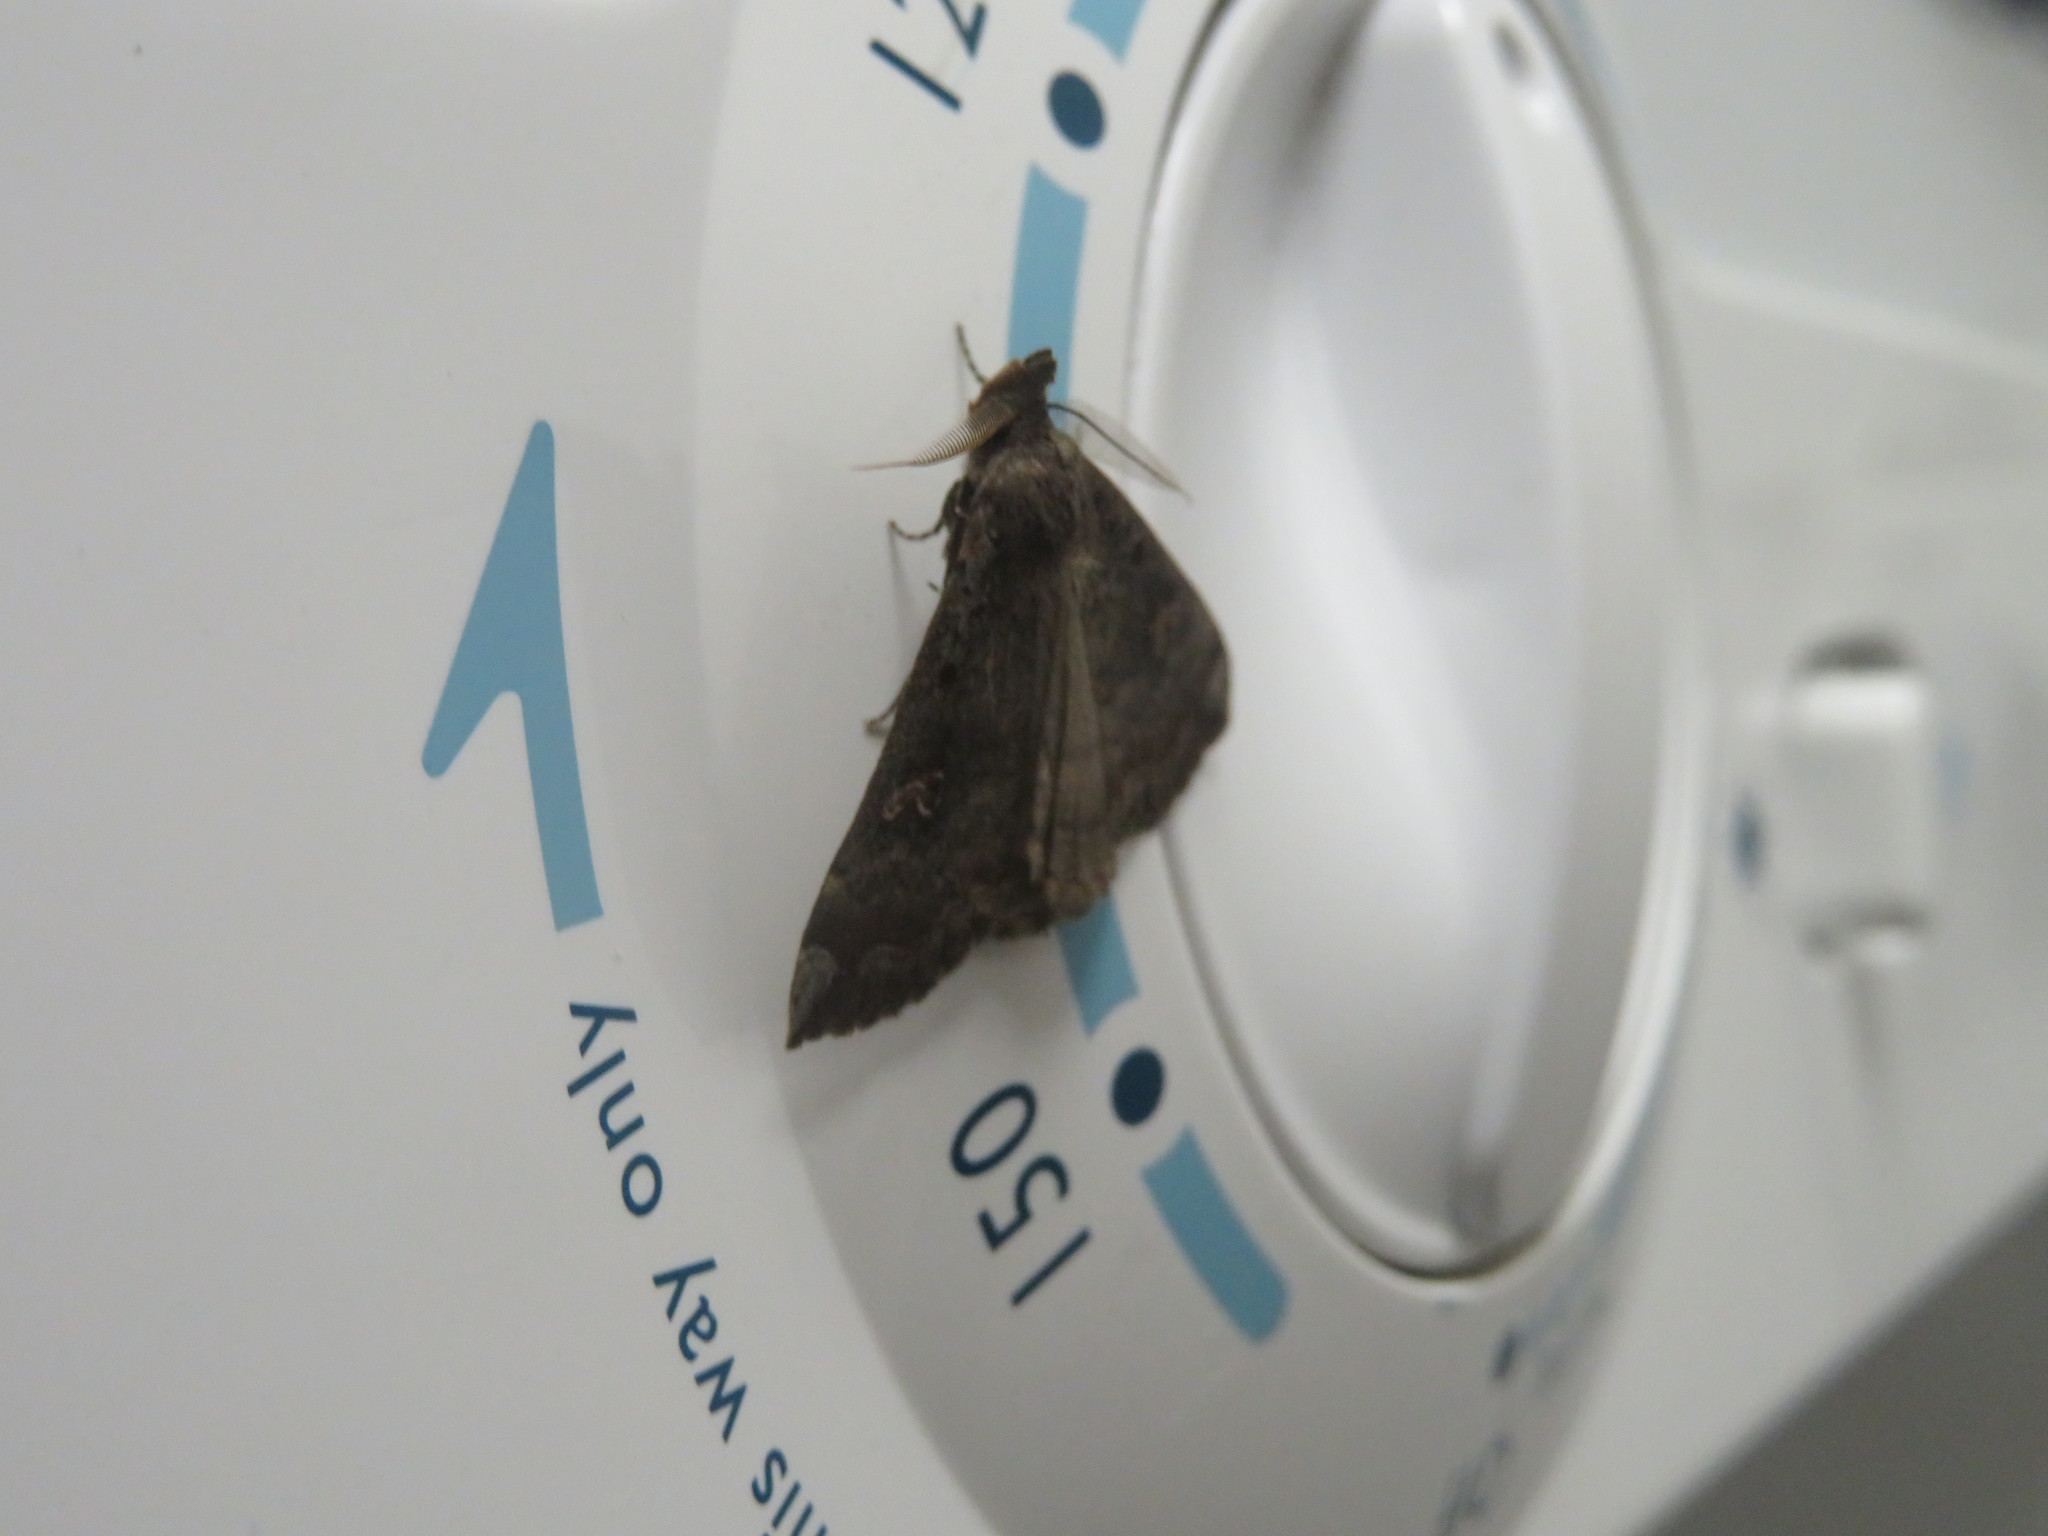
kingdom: Animalia
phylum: Arthropoda
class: Insecta
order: Lepidoptera
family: Erebidae
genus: Rhapsa
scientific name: Rhapsa scotosialis
